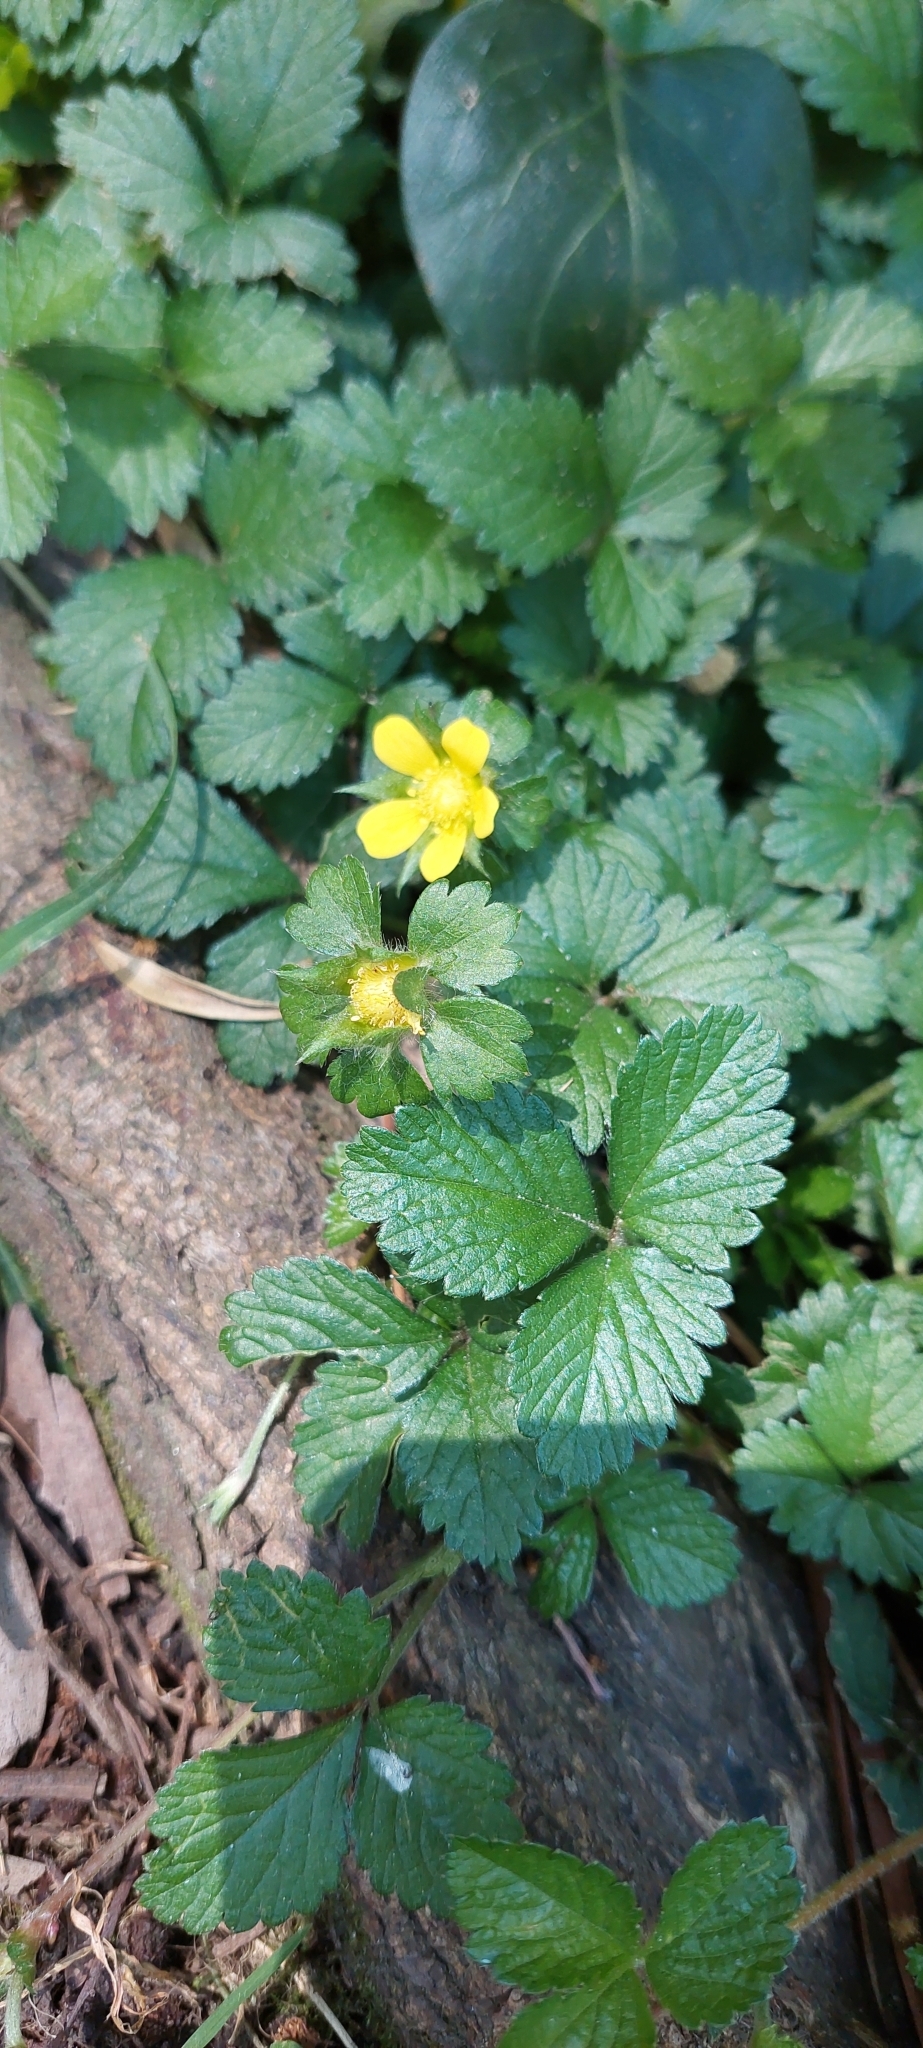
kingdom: Plantae
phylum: Tracheophyta
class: Magnoliopsida
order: Rosales
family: Rosaceae
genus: Potentilla
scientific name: Potentilla indica
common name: Yellow-flowered strawberry
